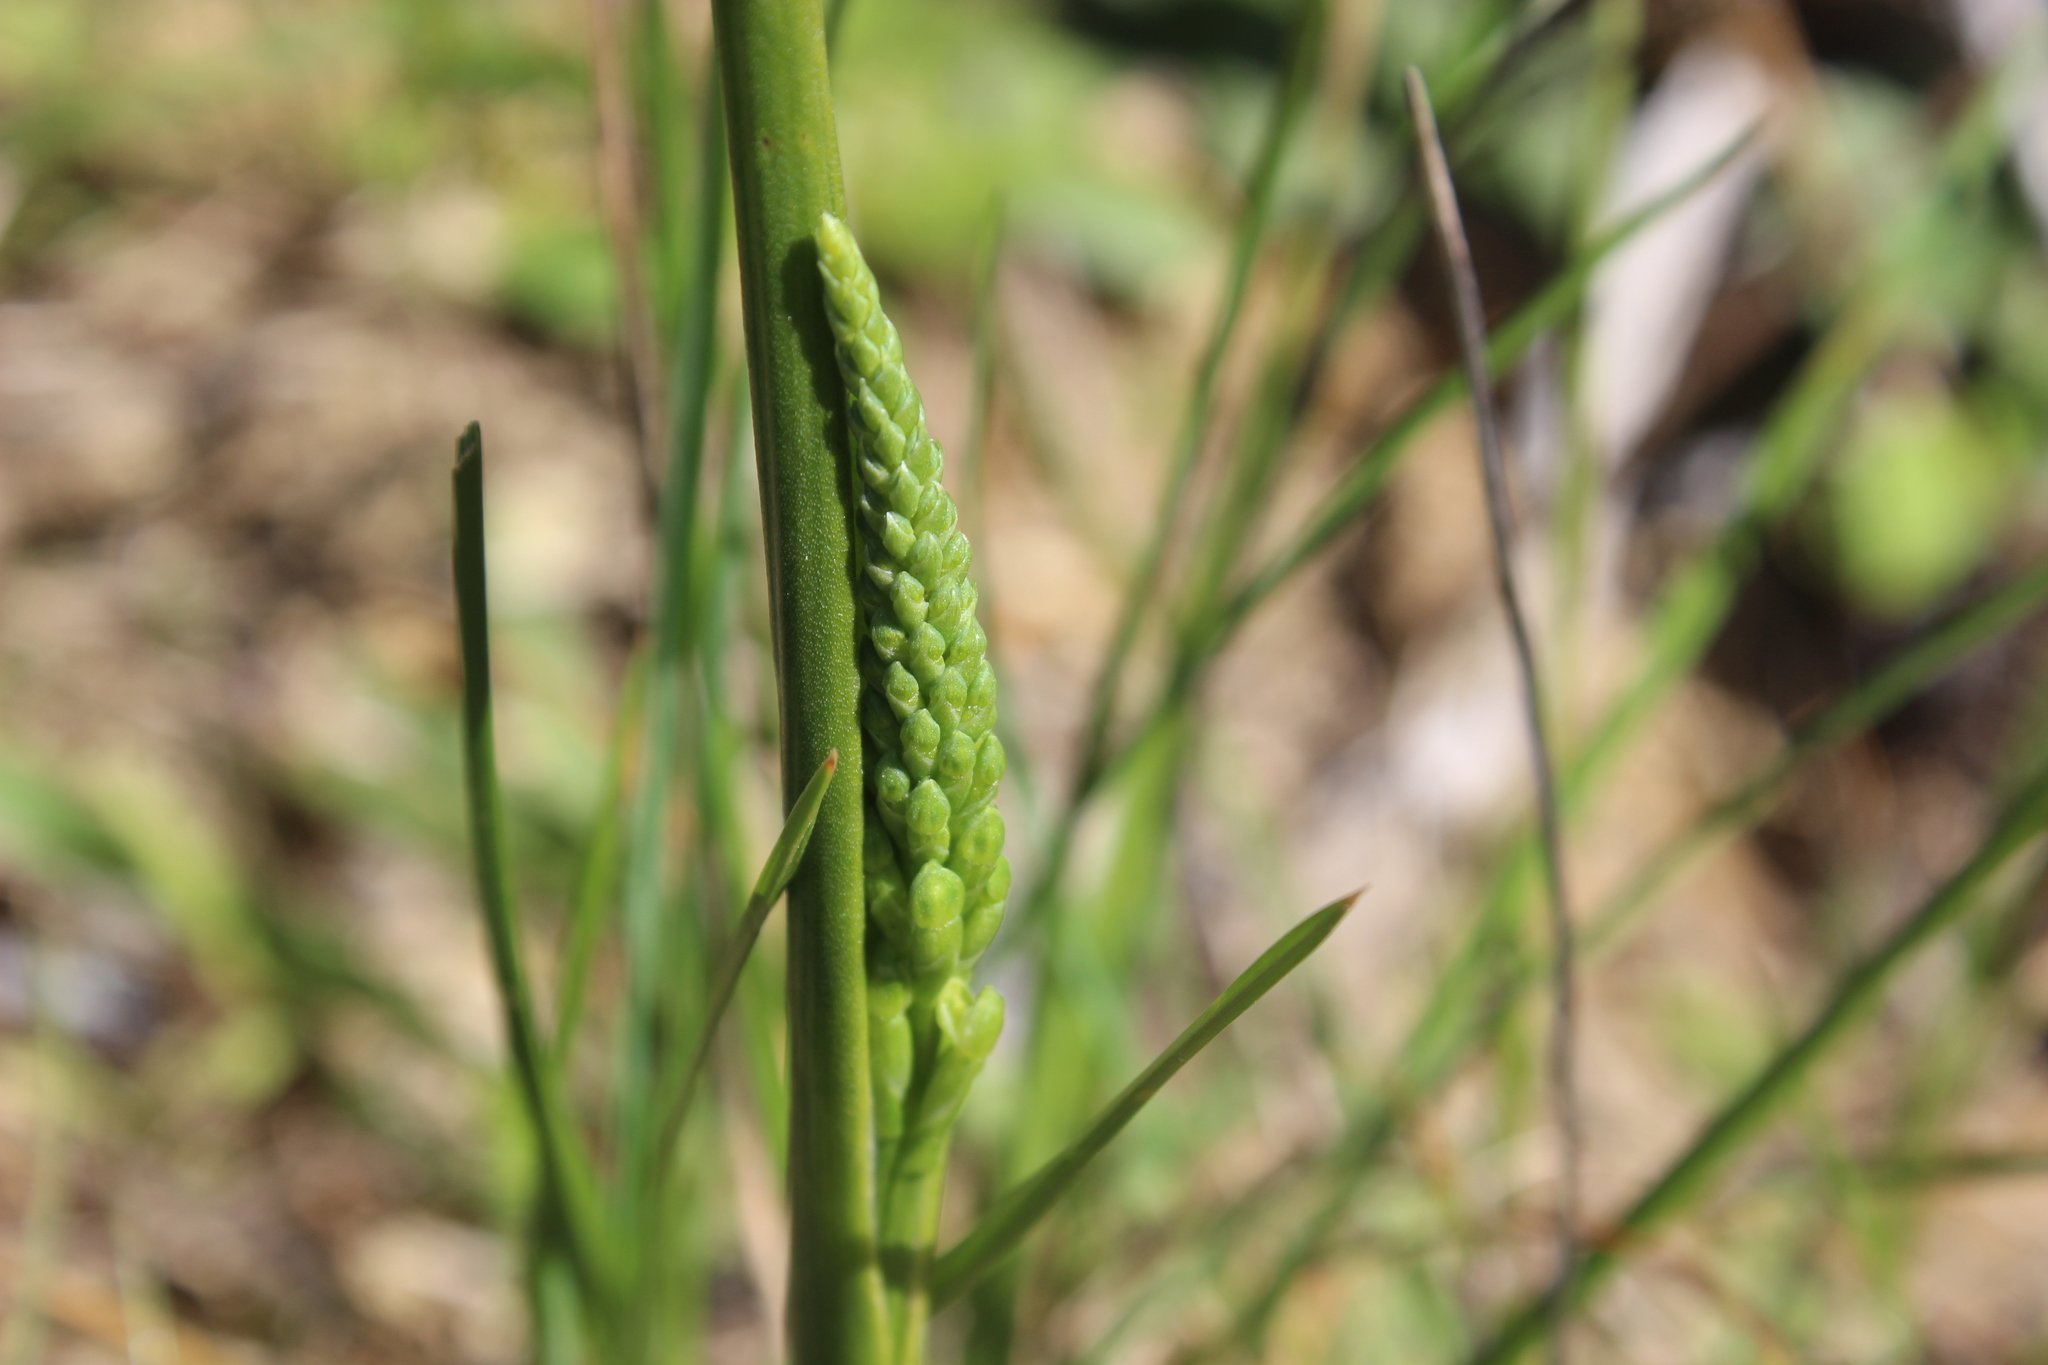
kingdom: Plantae
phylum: Tracheophyta
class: Liliopsida
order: Asparagales
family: Orchidaceae
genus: Microtis
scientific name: Microtis unifolia
